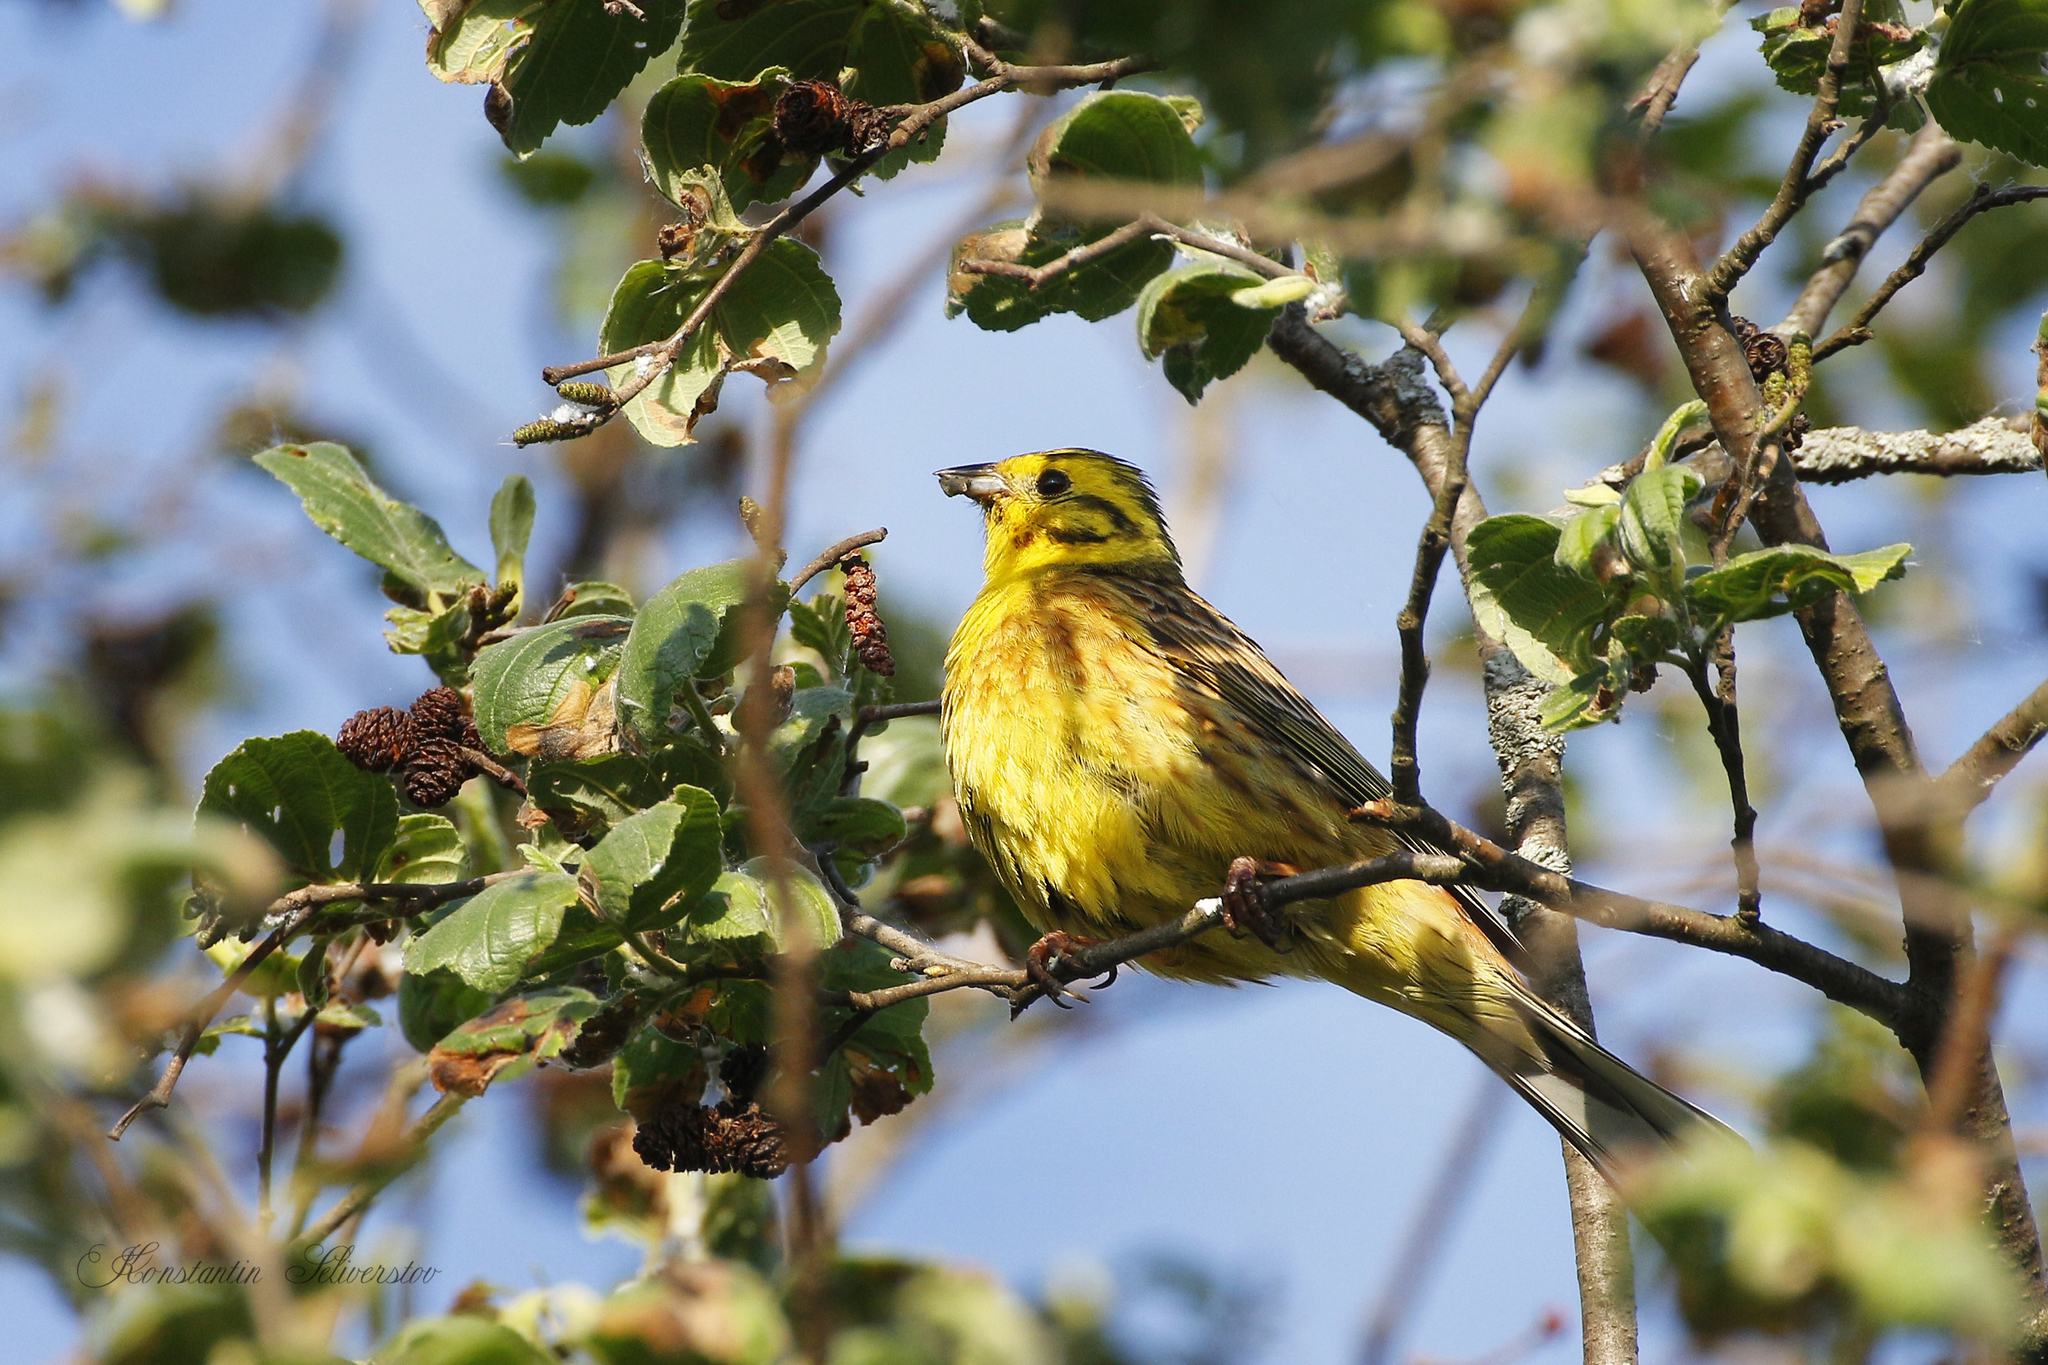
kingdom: Animalia
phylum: Chordata
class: Aves
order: Passeriformes
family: Emberizidae
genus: Emberiza
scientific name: Emberiza citrinella
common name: Yellowhammer
